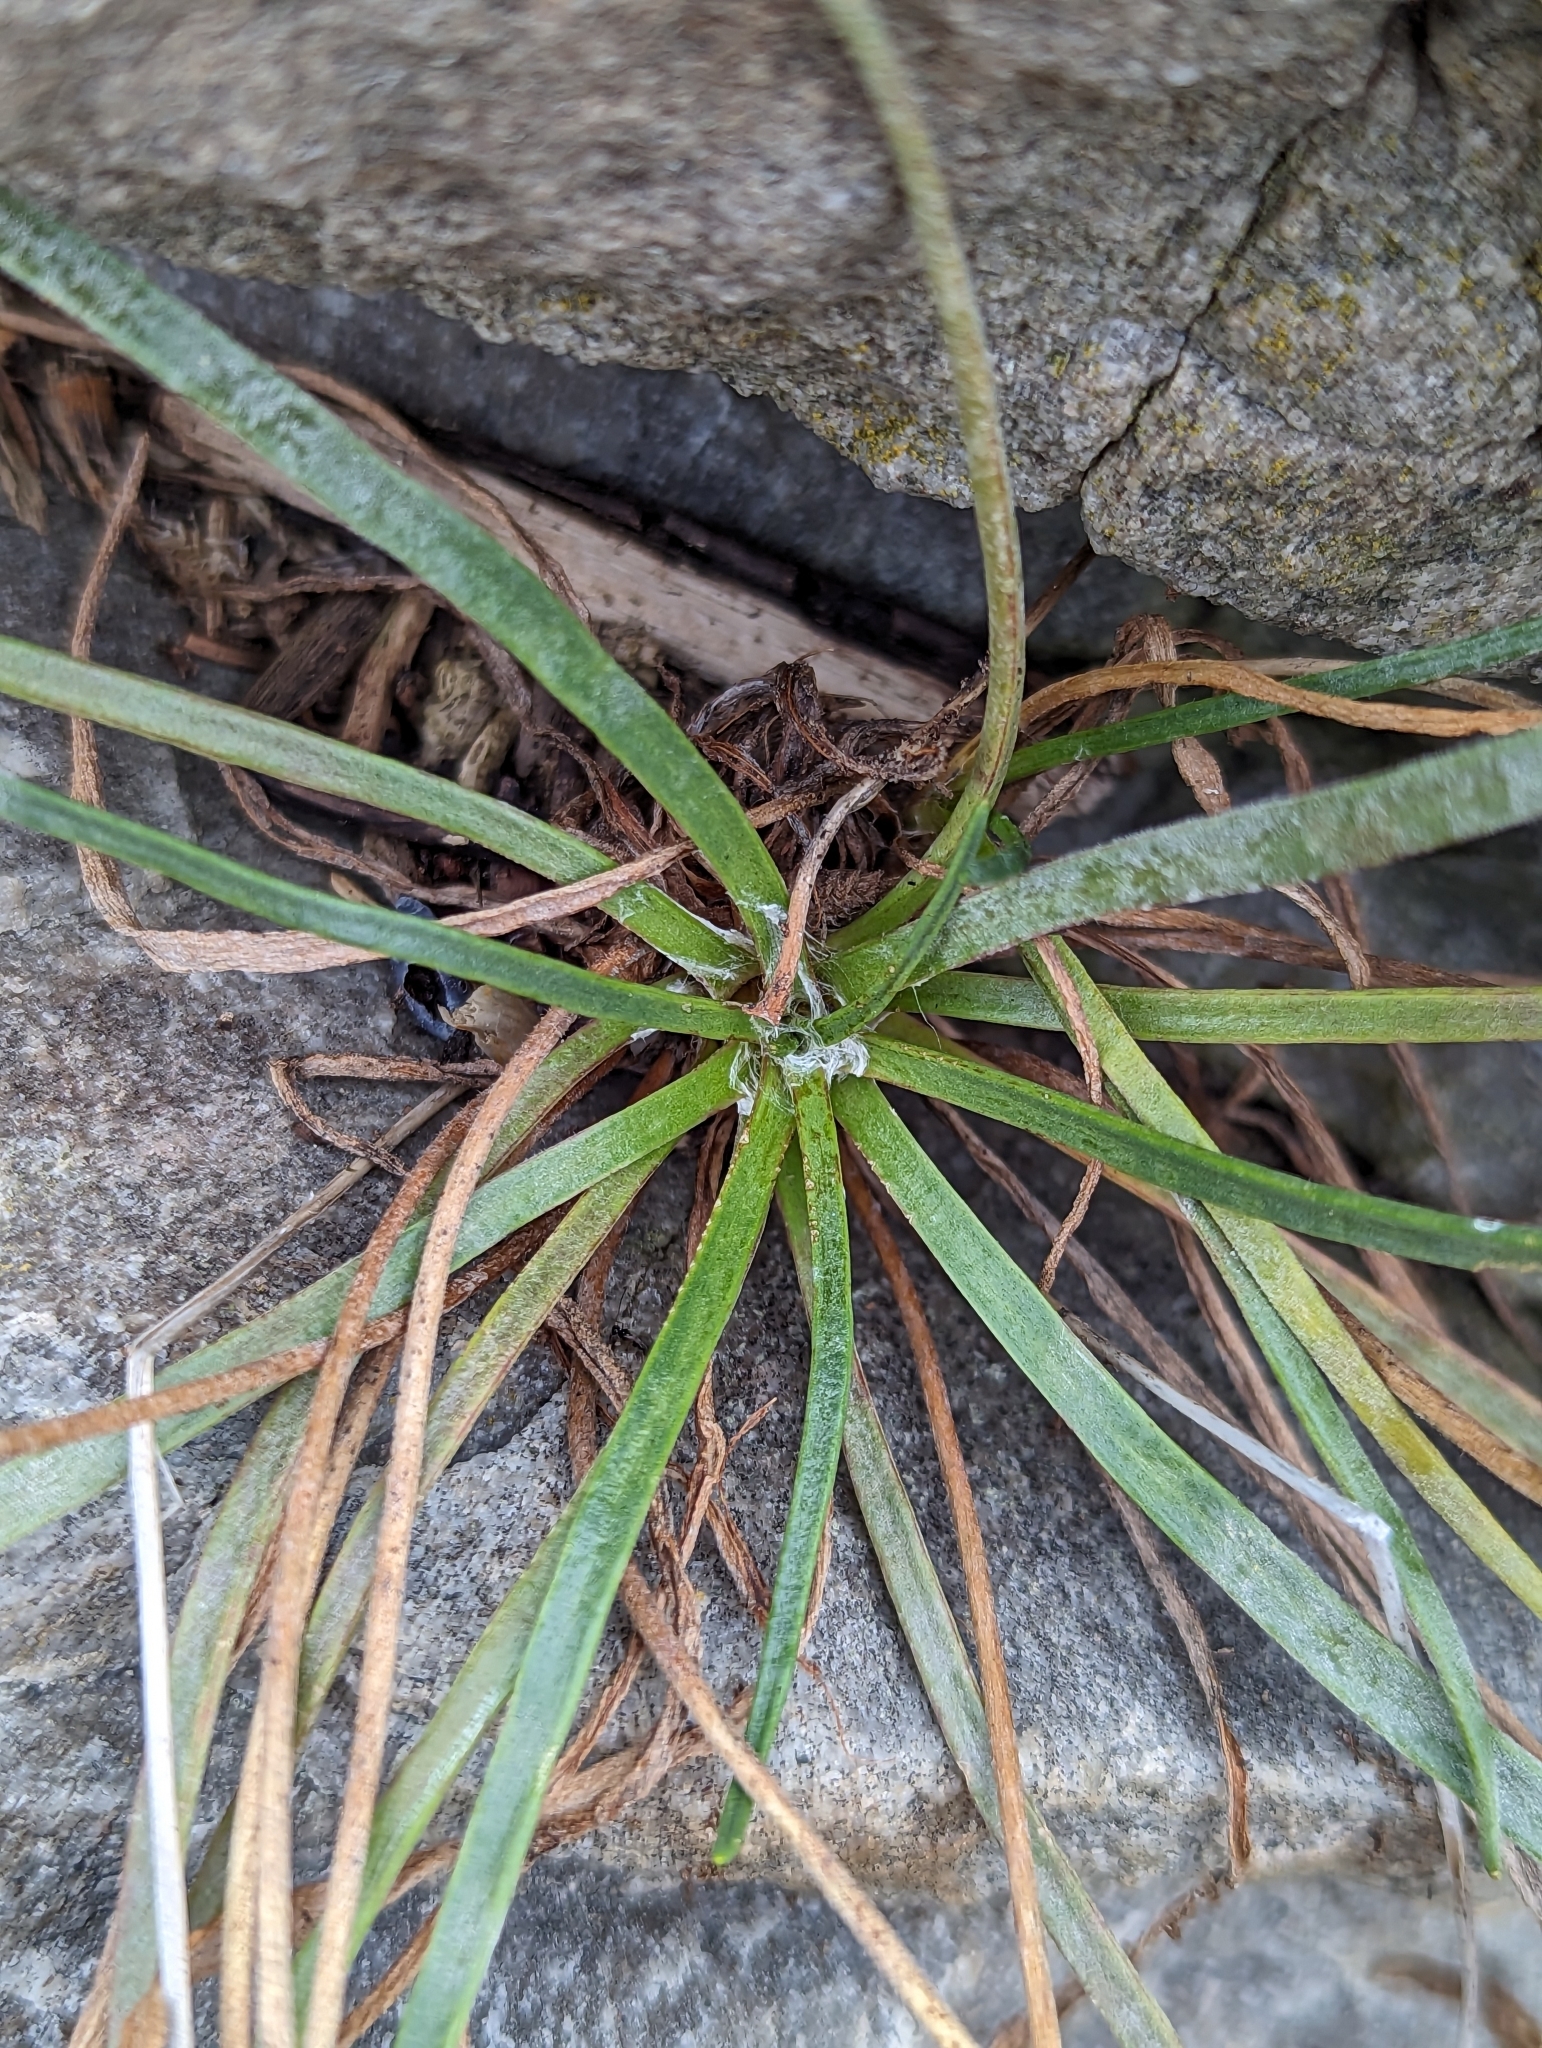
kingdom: Plantae
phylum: Tracheophyta
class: Magnoliopsida
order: Lamiales
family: Plantaginaceae
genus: Plantago
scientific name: Plantago maritima
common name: Sea plantain
